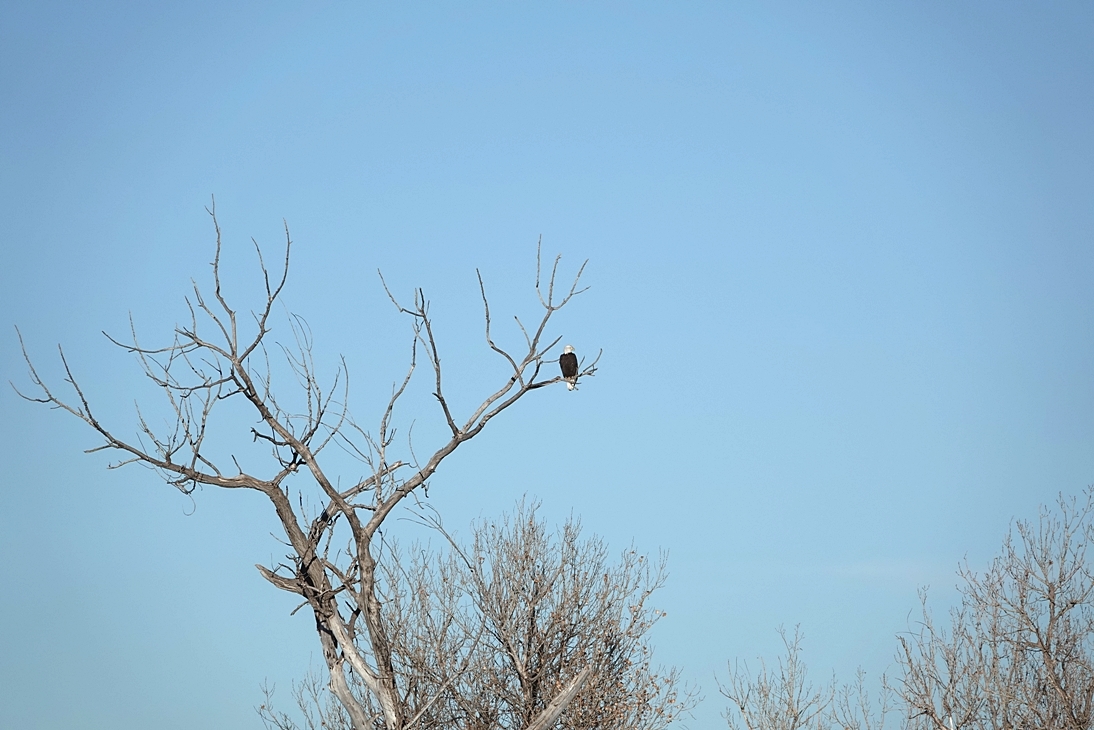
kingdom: Animalia
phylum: Chordata
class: Aves
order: Accipitriformes
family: Accipitridae
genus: Haliaeetus
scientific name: Haliaeetus leucocephalus
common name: Bald eagle
